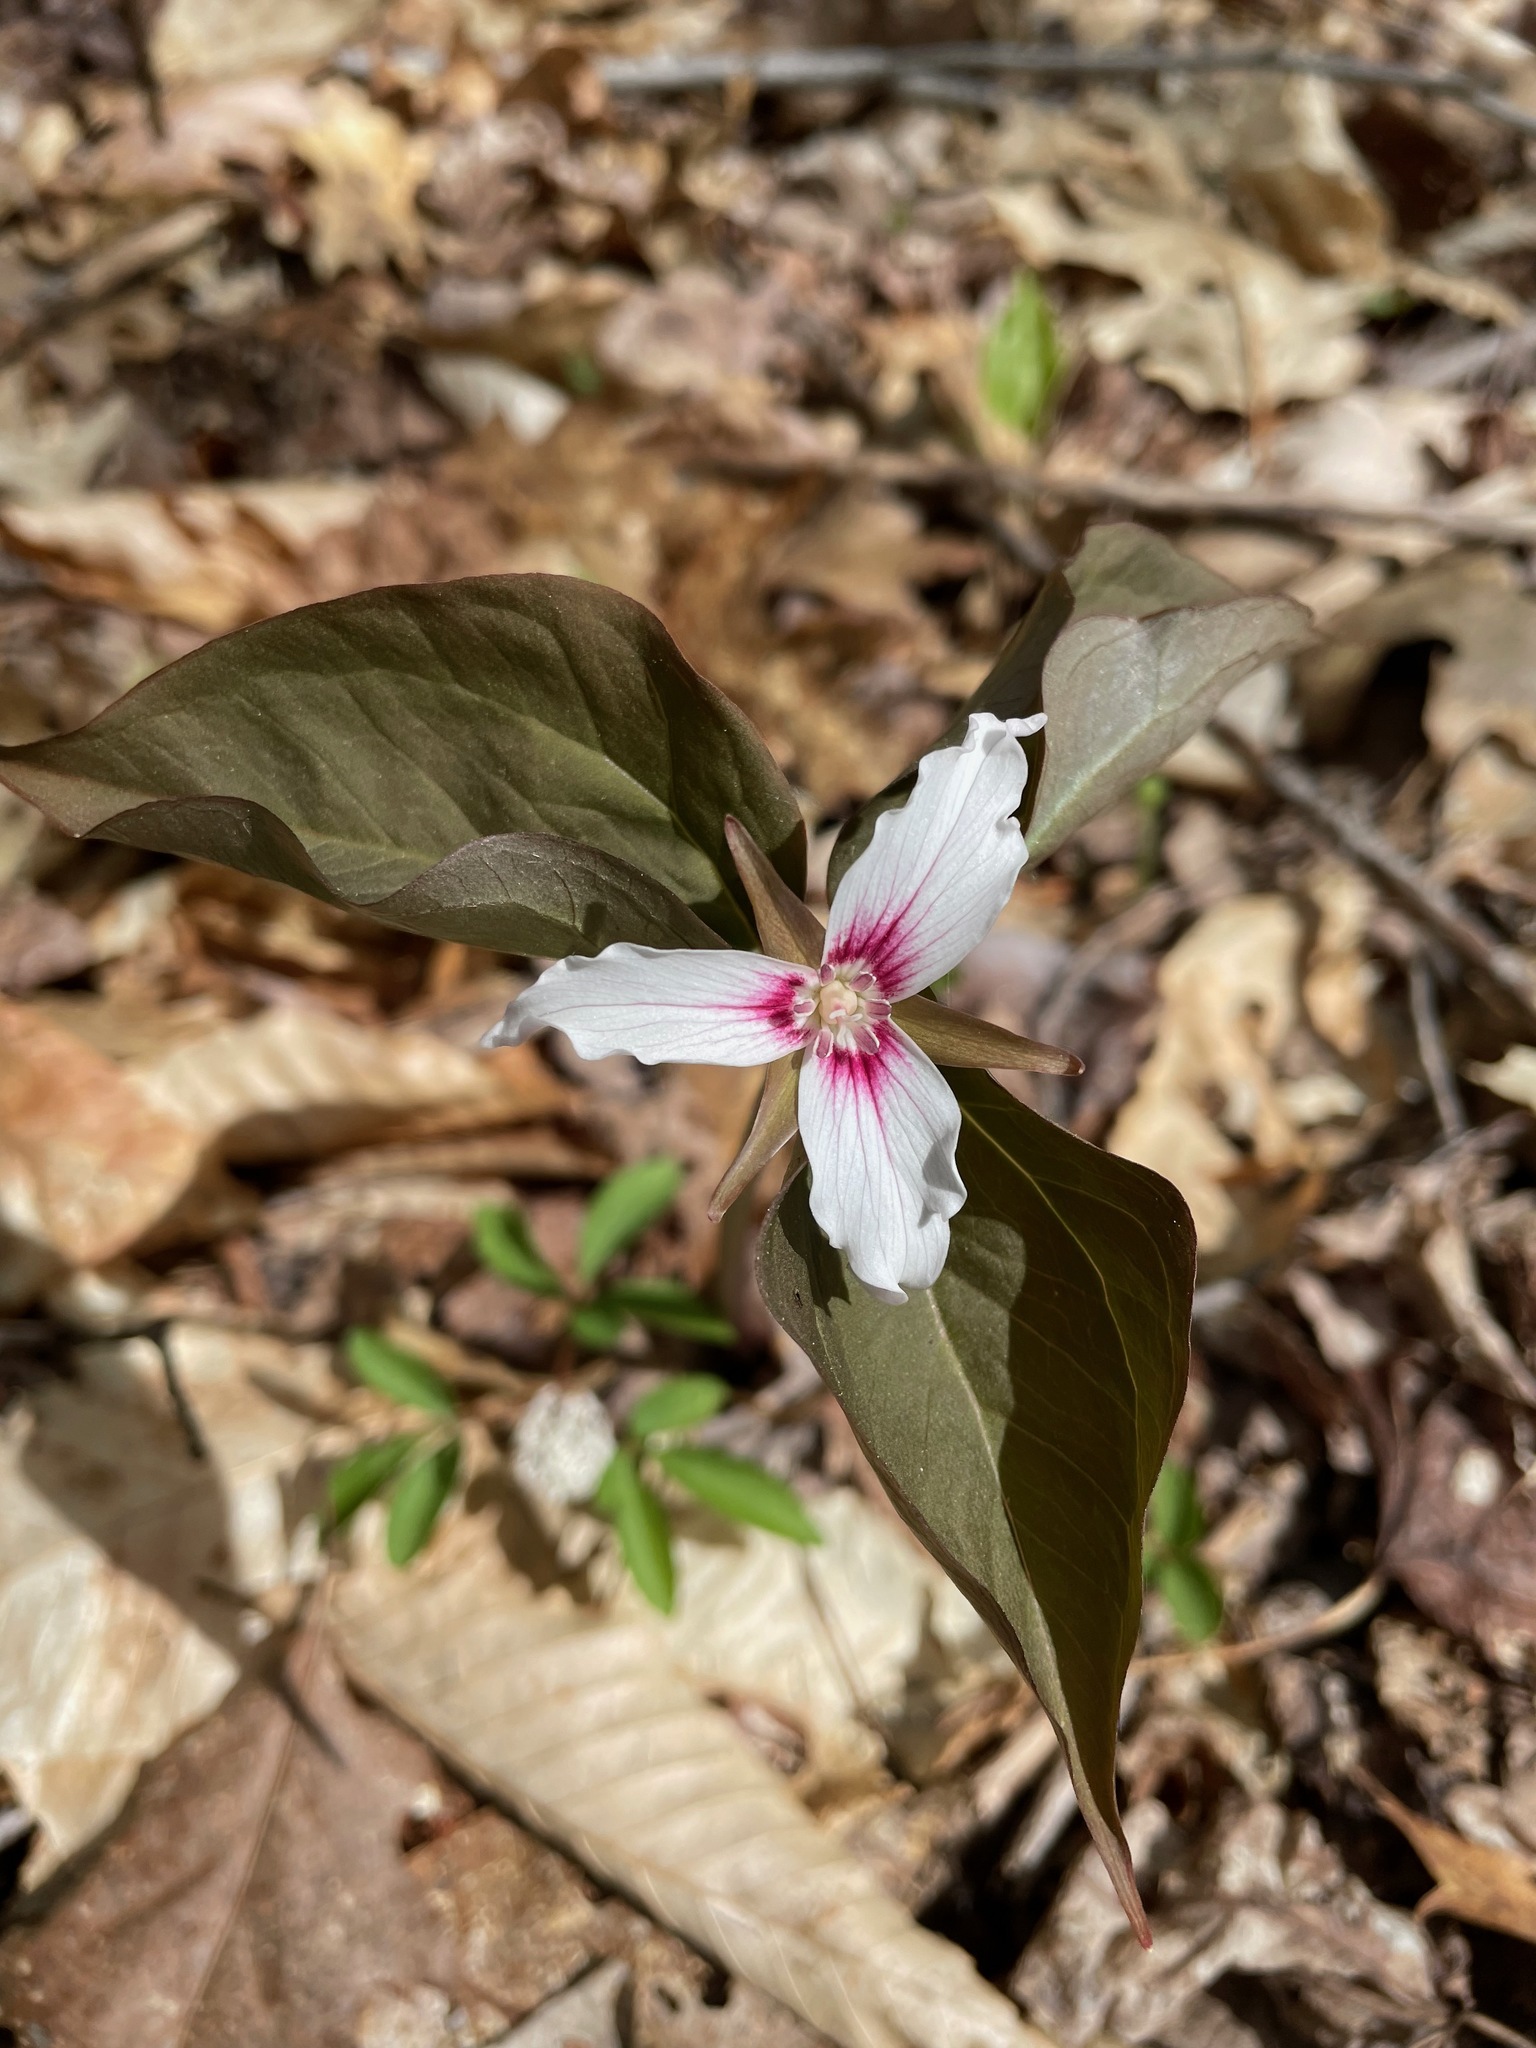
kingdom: Plantae
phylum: Tracheophyta
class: Liliopsida
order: Liliales
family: Melanthiaceae
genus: Trillium
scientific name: Trillium undulatum
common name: Paint trillium
